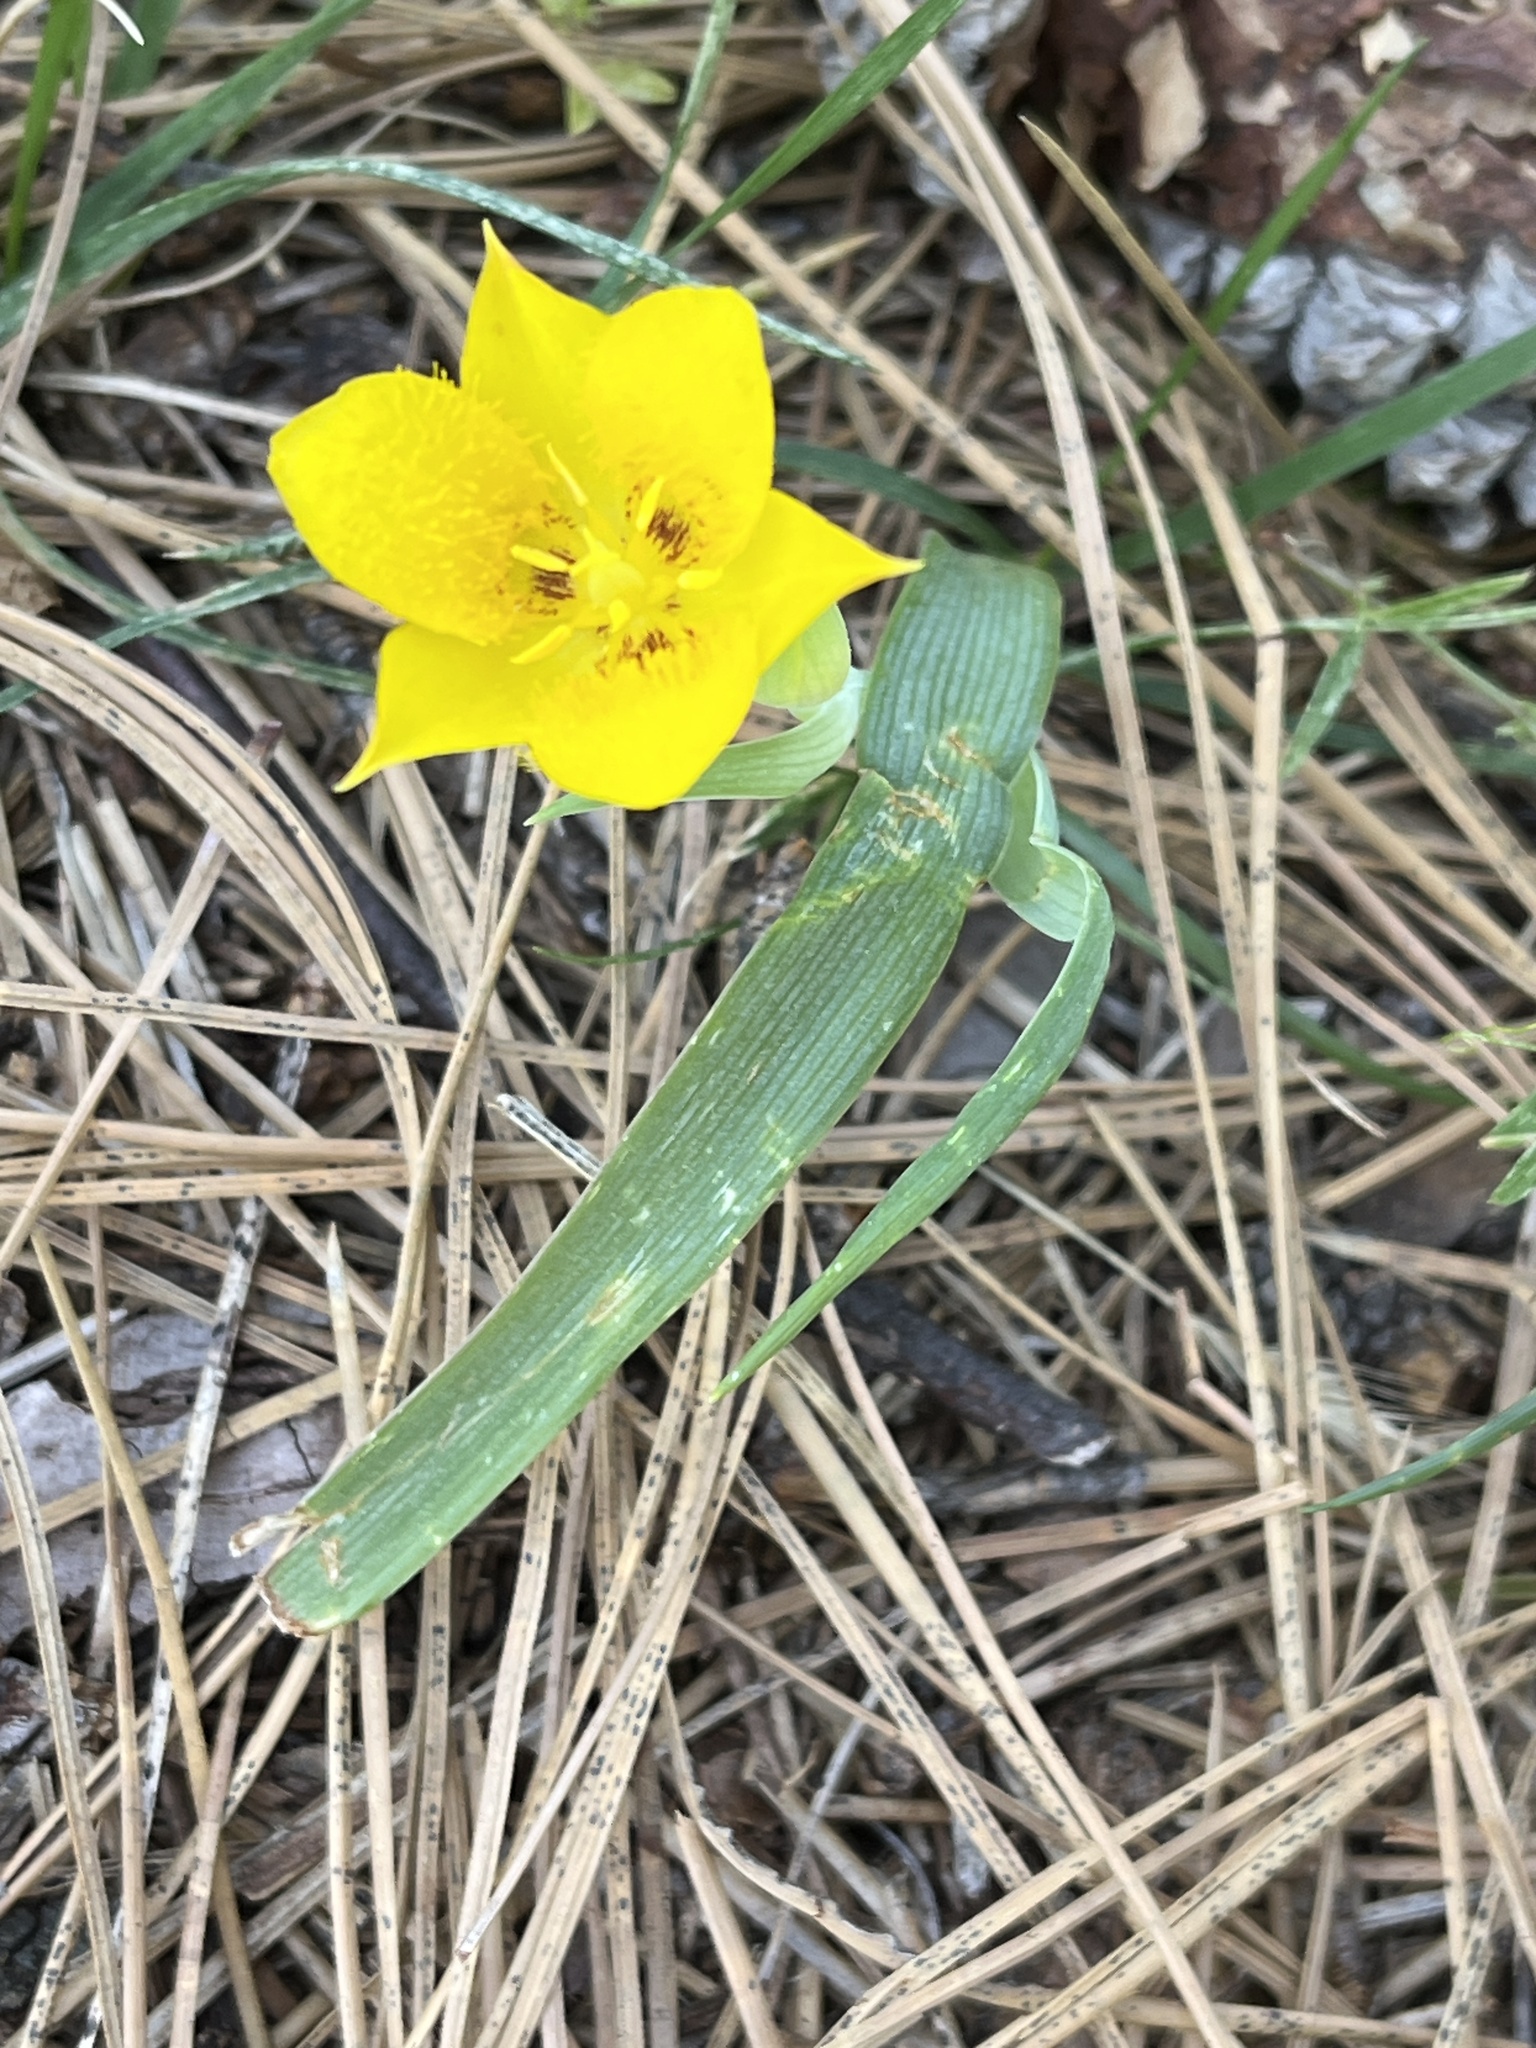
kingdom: Plantae
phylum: Tracheophyta
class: Liliopsida
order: Liliales
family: Liliaceae
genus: Calochortus
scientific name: Calochortus monophyllus
